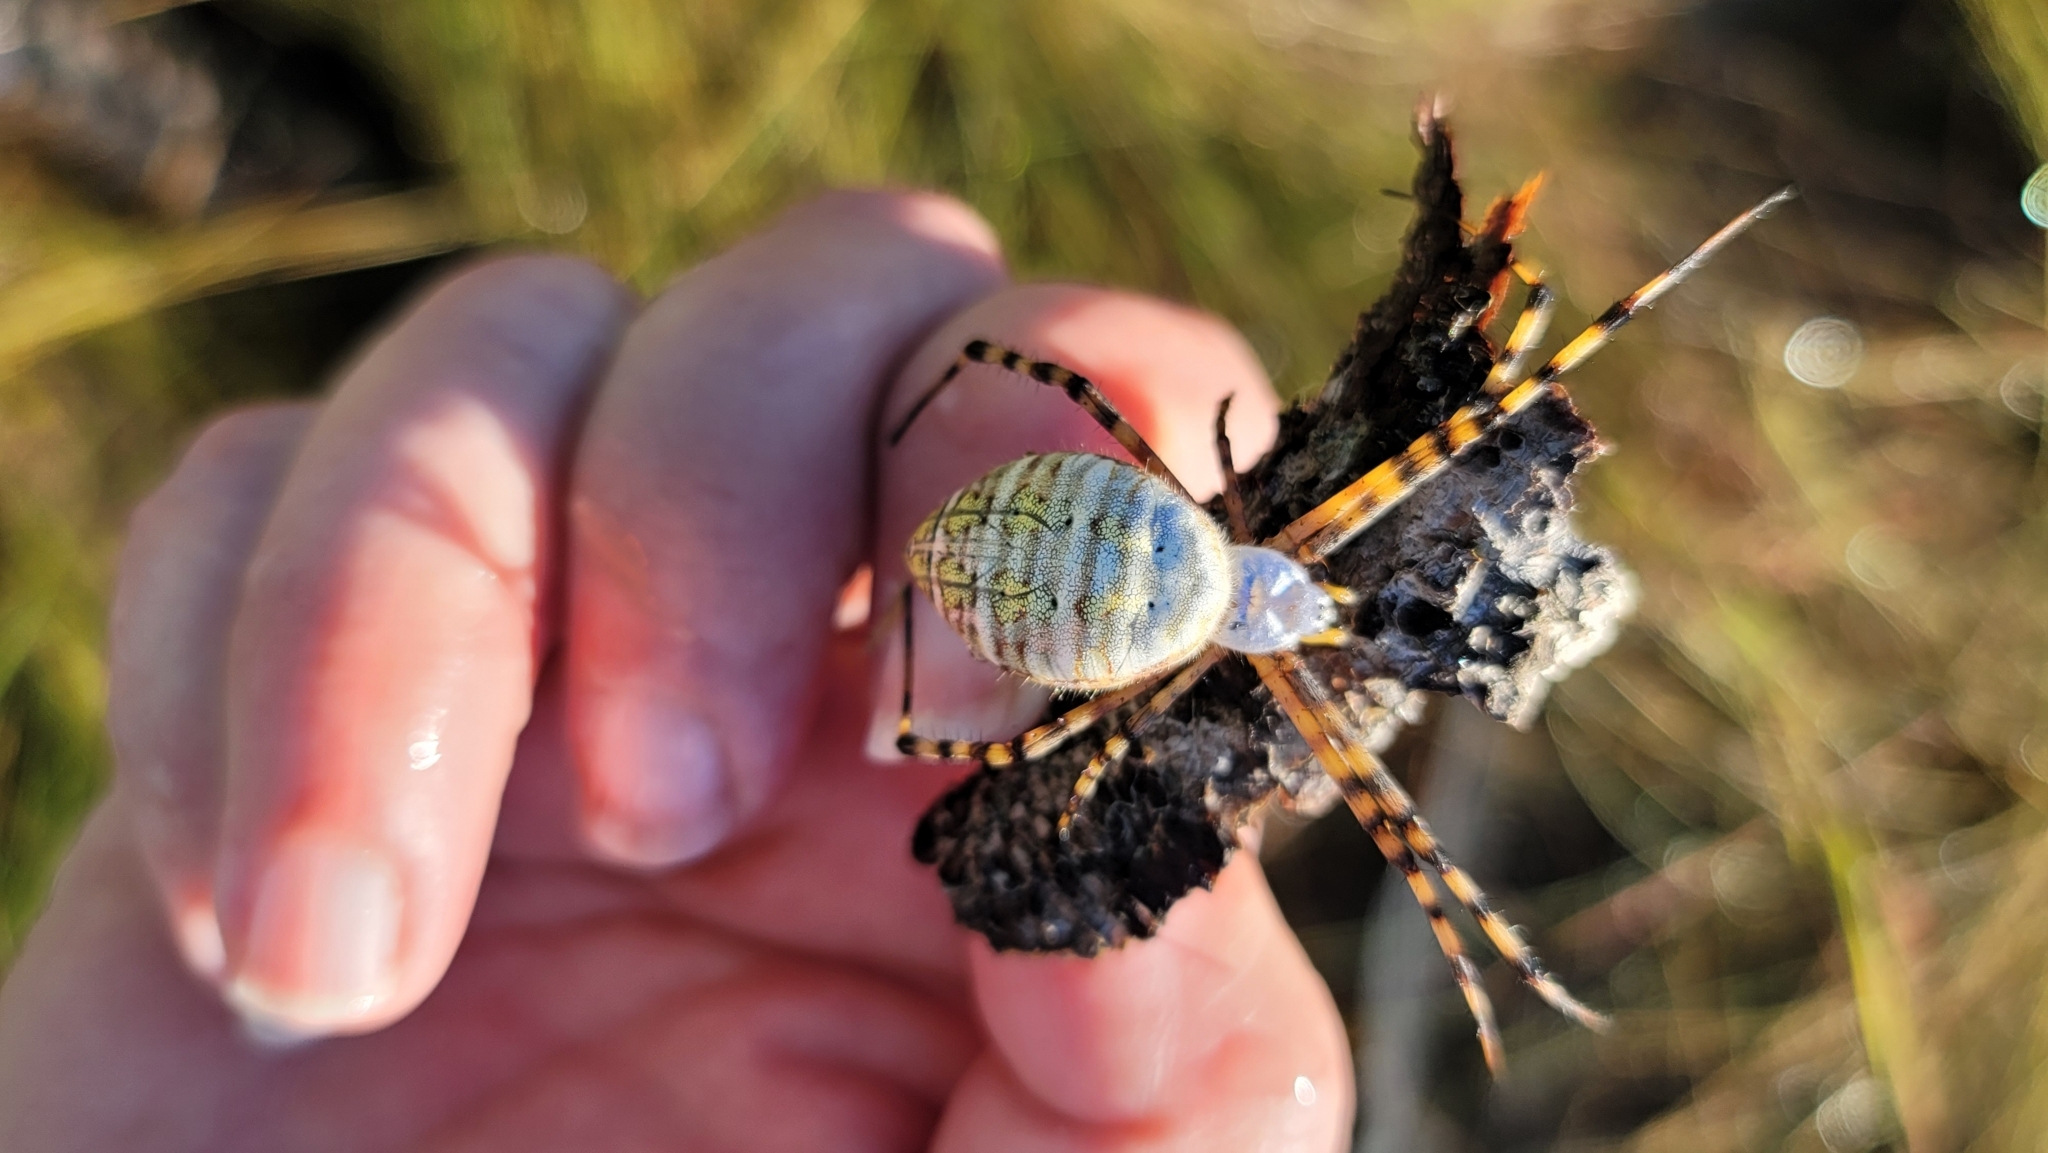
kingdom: Animalia
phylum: Arthropoda
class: Arachnida
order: Araneae
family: Araneidae
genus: Argiope
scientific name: Argiope trifasciata
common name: Banded garden spider
